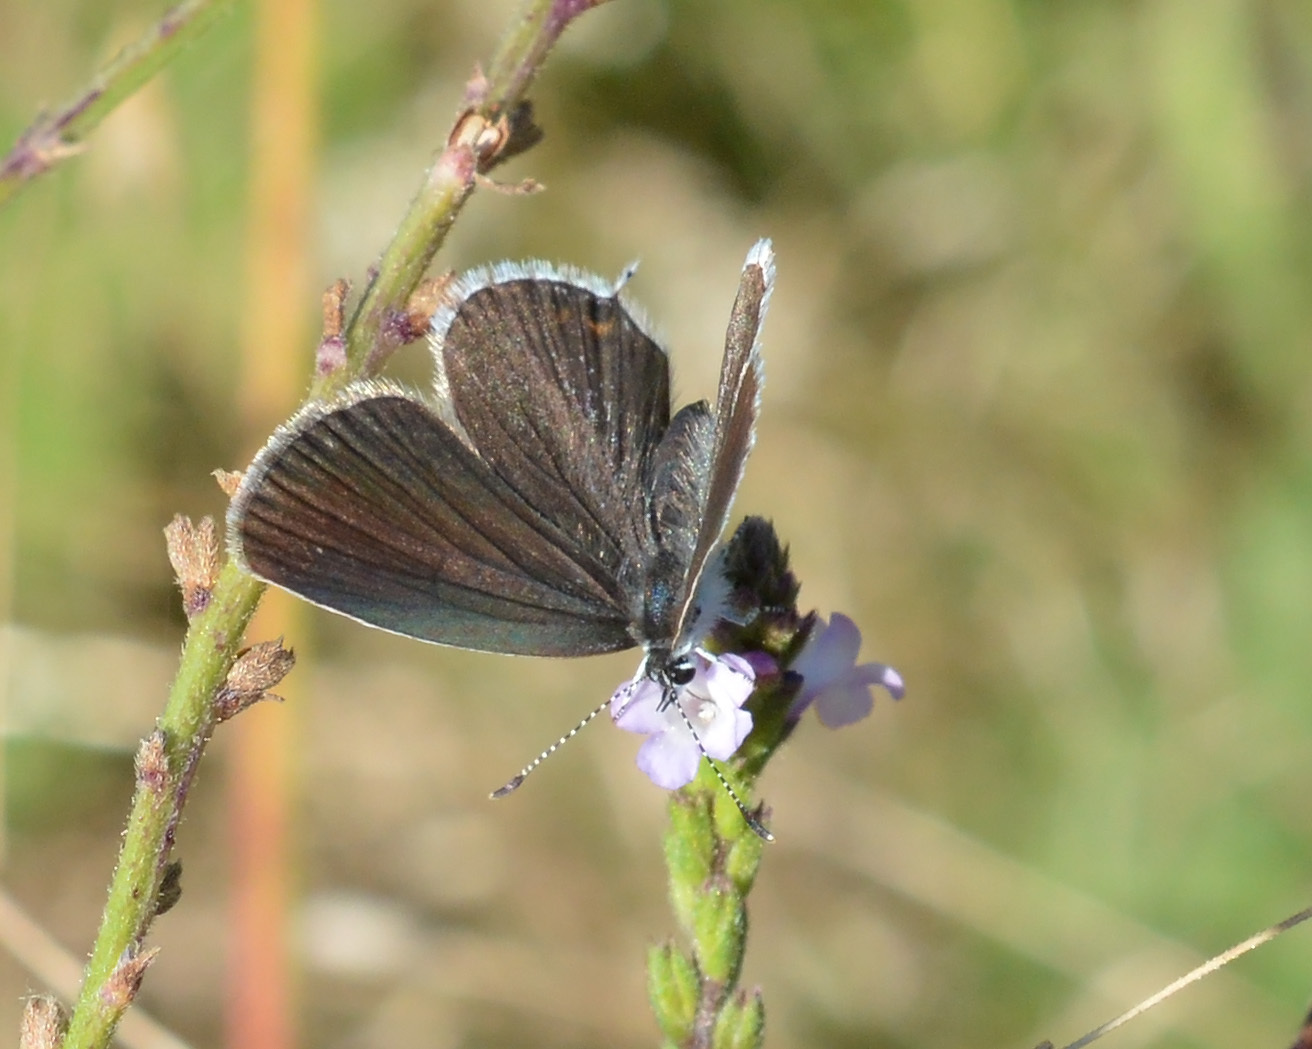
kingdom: Animalia
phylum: Arthropoda
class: Insecta
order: Lepidoptera
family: Lycaenidae
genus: Elkalyce
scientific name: Elkalyce argiades
